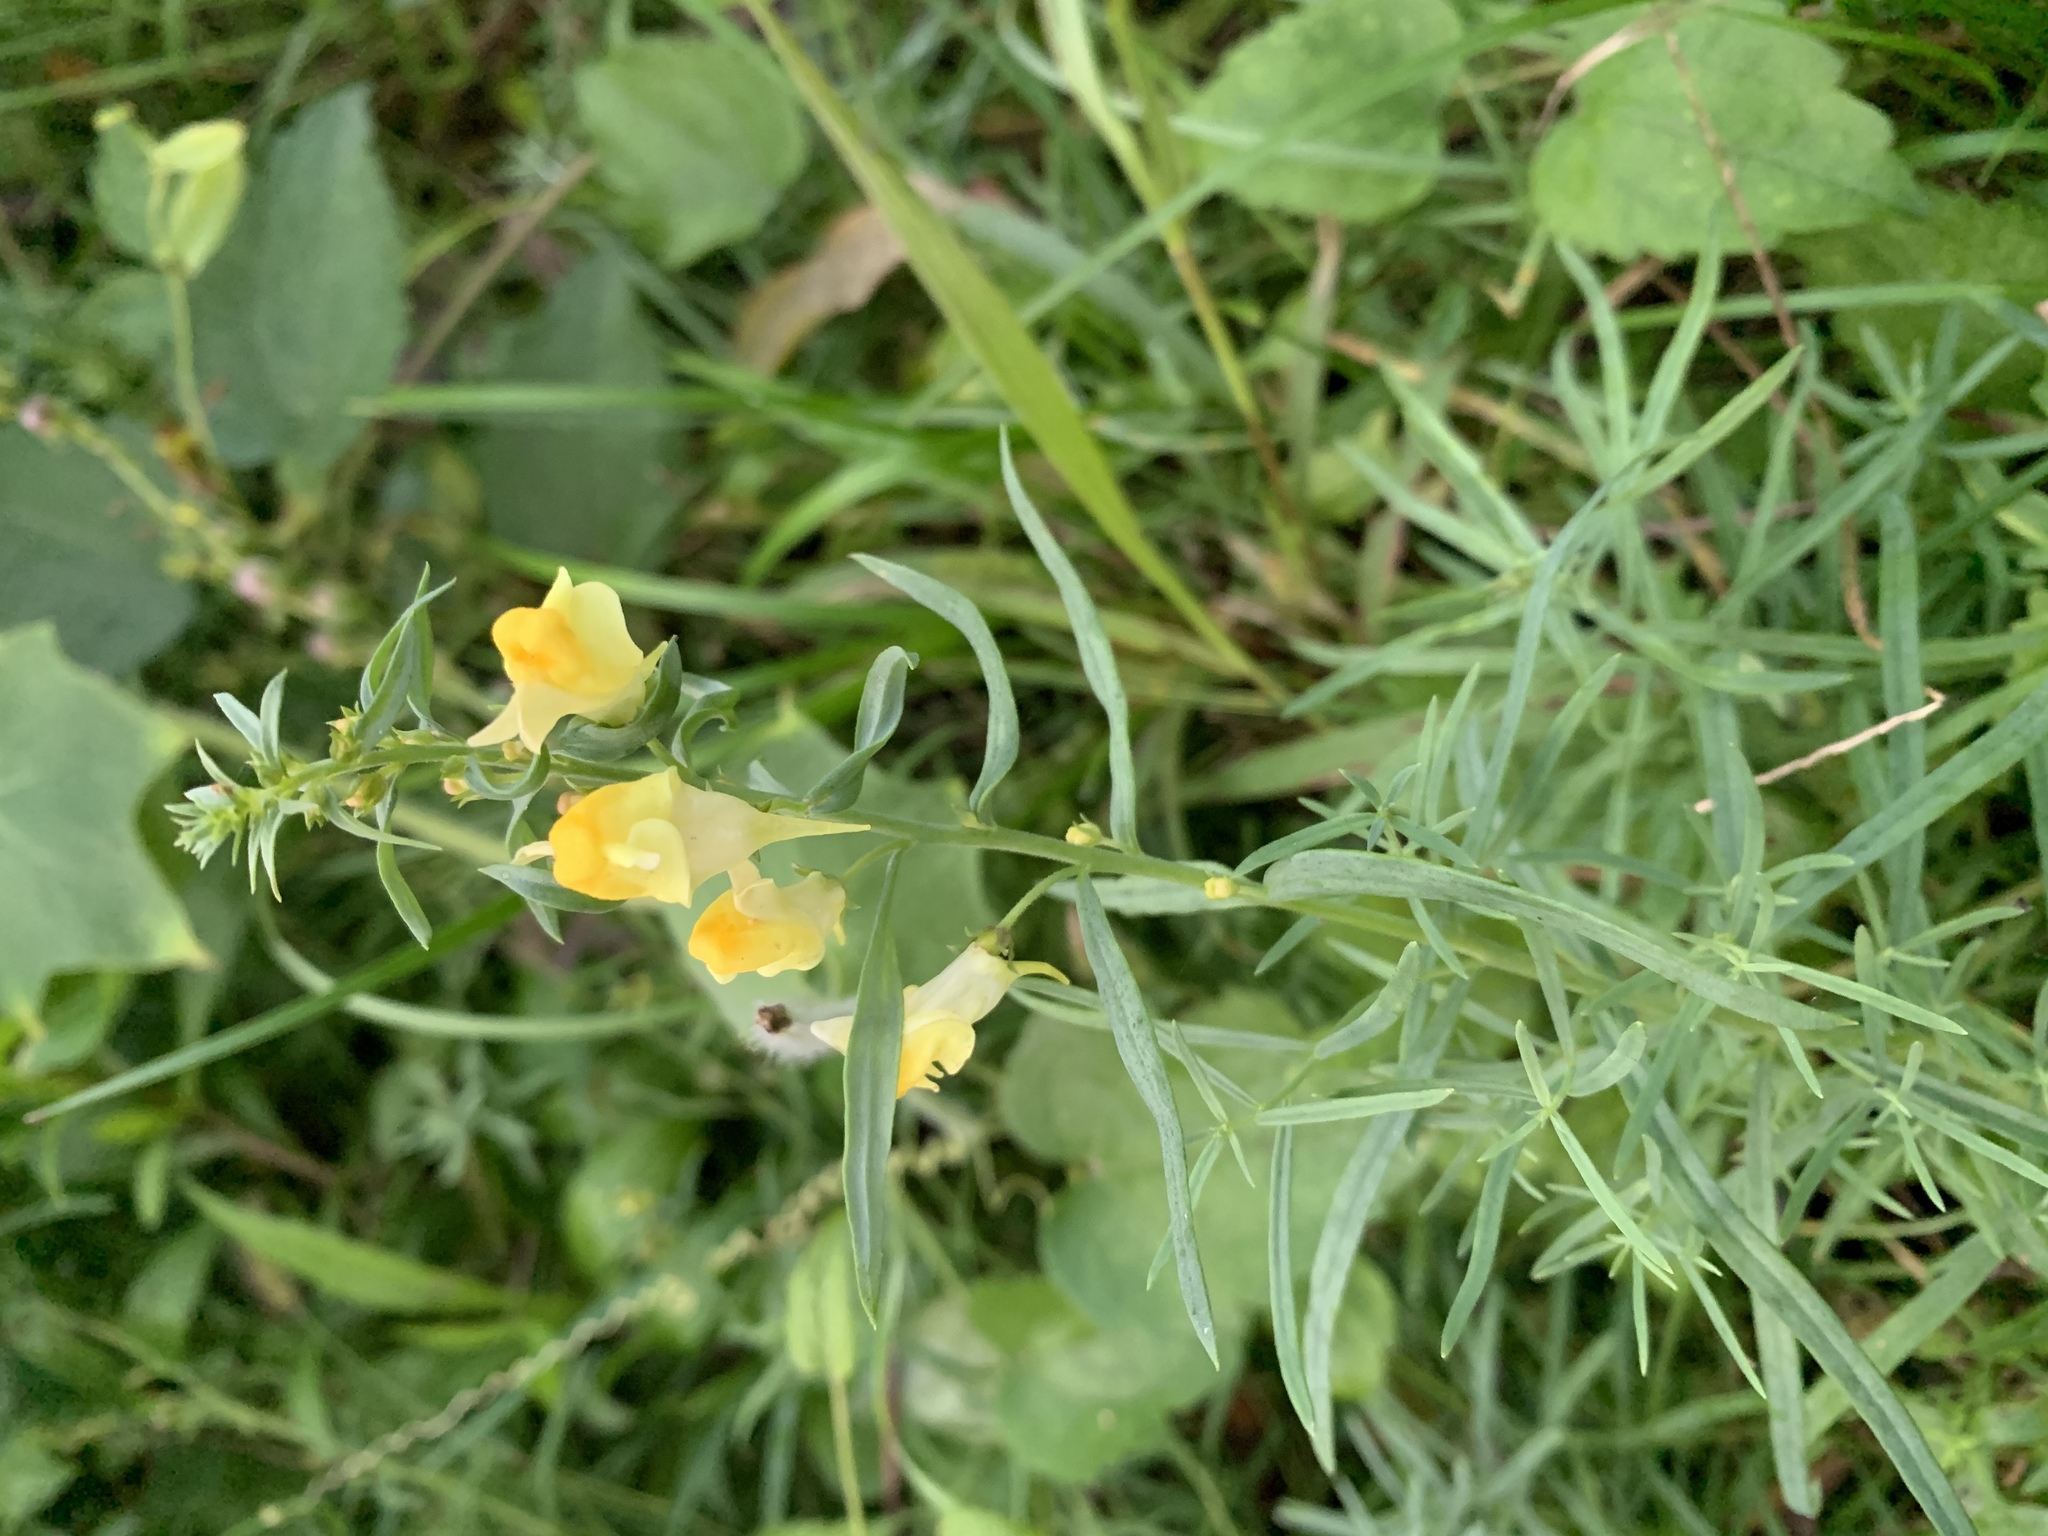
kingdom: Plantae
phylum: Tracheophyta
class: Magnoliopsida
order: Lamiales
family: Plantaginaceae
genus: Linaria
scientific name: Linaria vulgaris
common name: Butter and eggs
